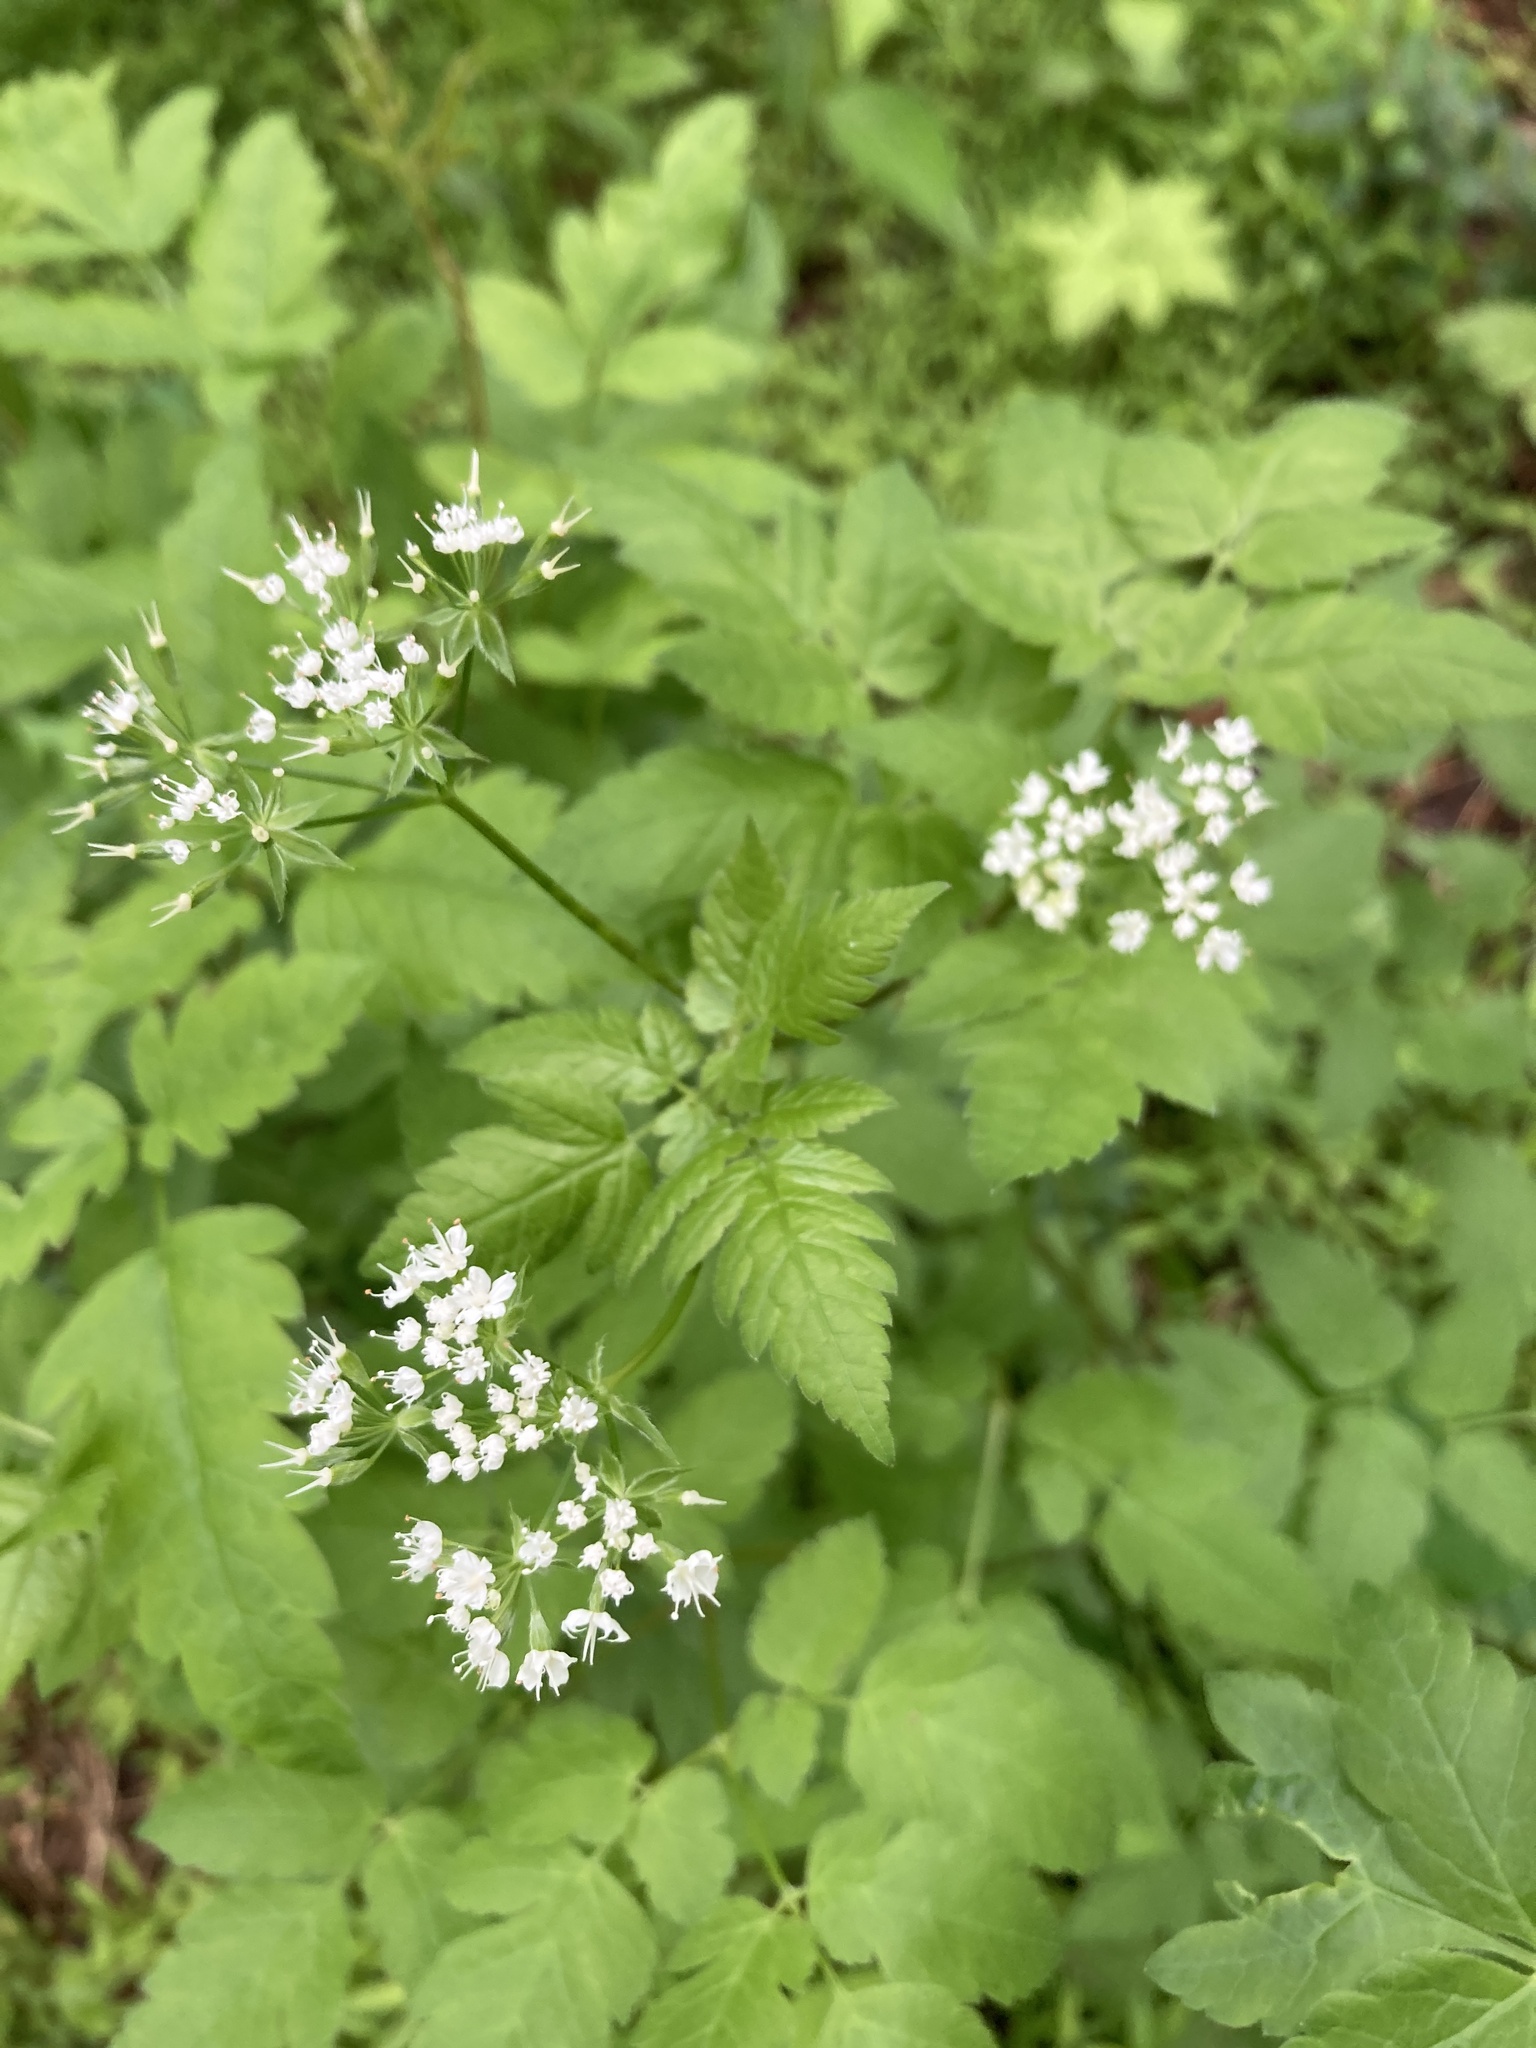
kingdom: Plantae
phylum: Tracheophyta
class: Magnoliopsida
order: Apiales
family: Apiaceae
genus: Osmorhiza
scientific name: Osmorhiza longistylis
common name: Smooth sweet cicely
